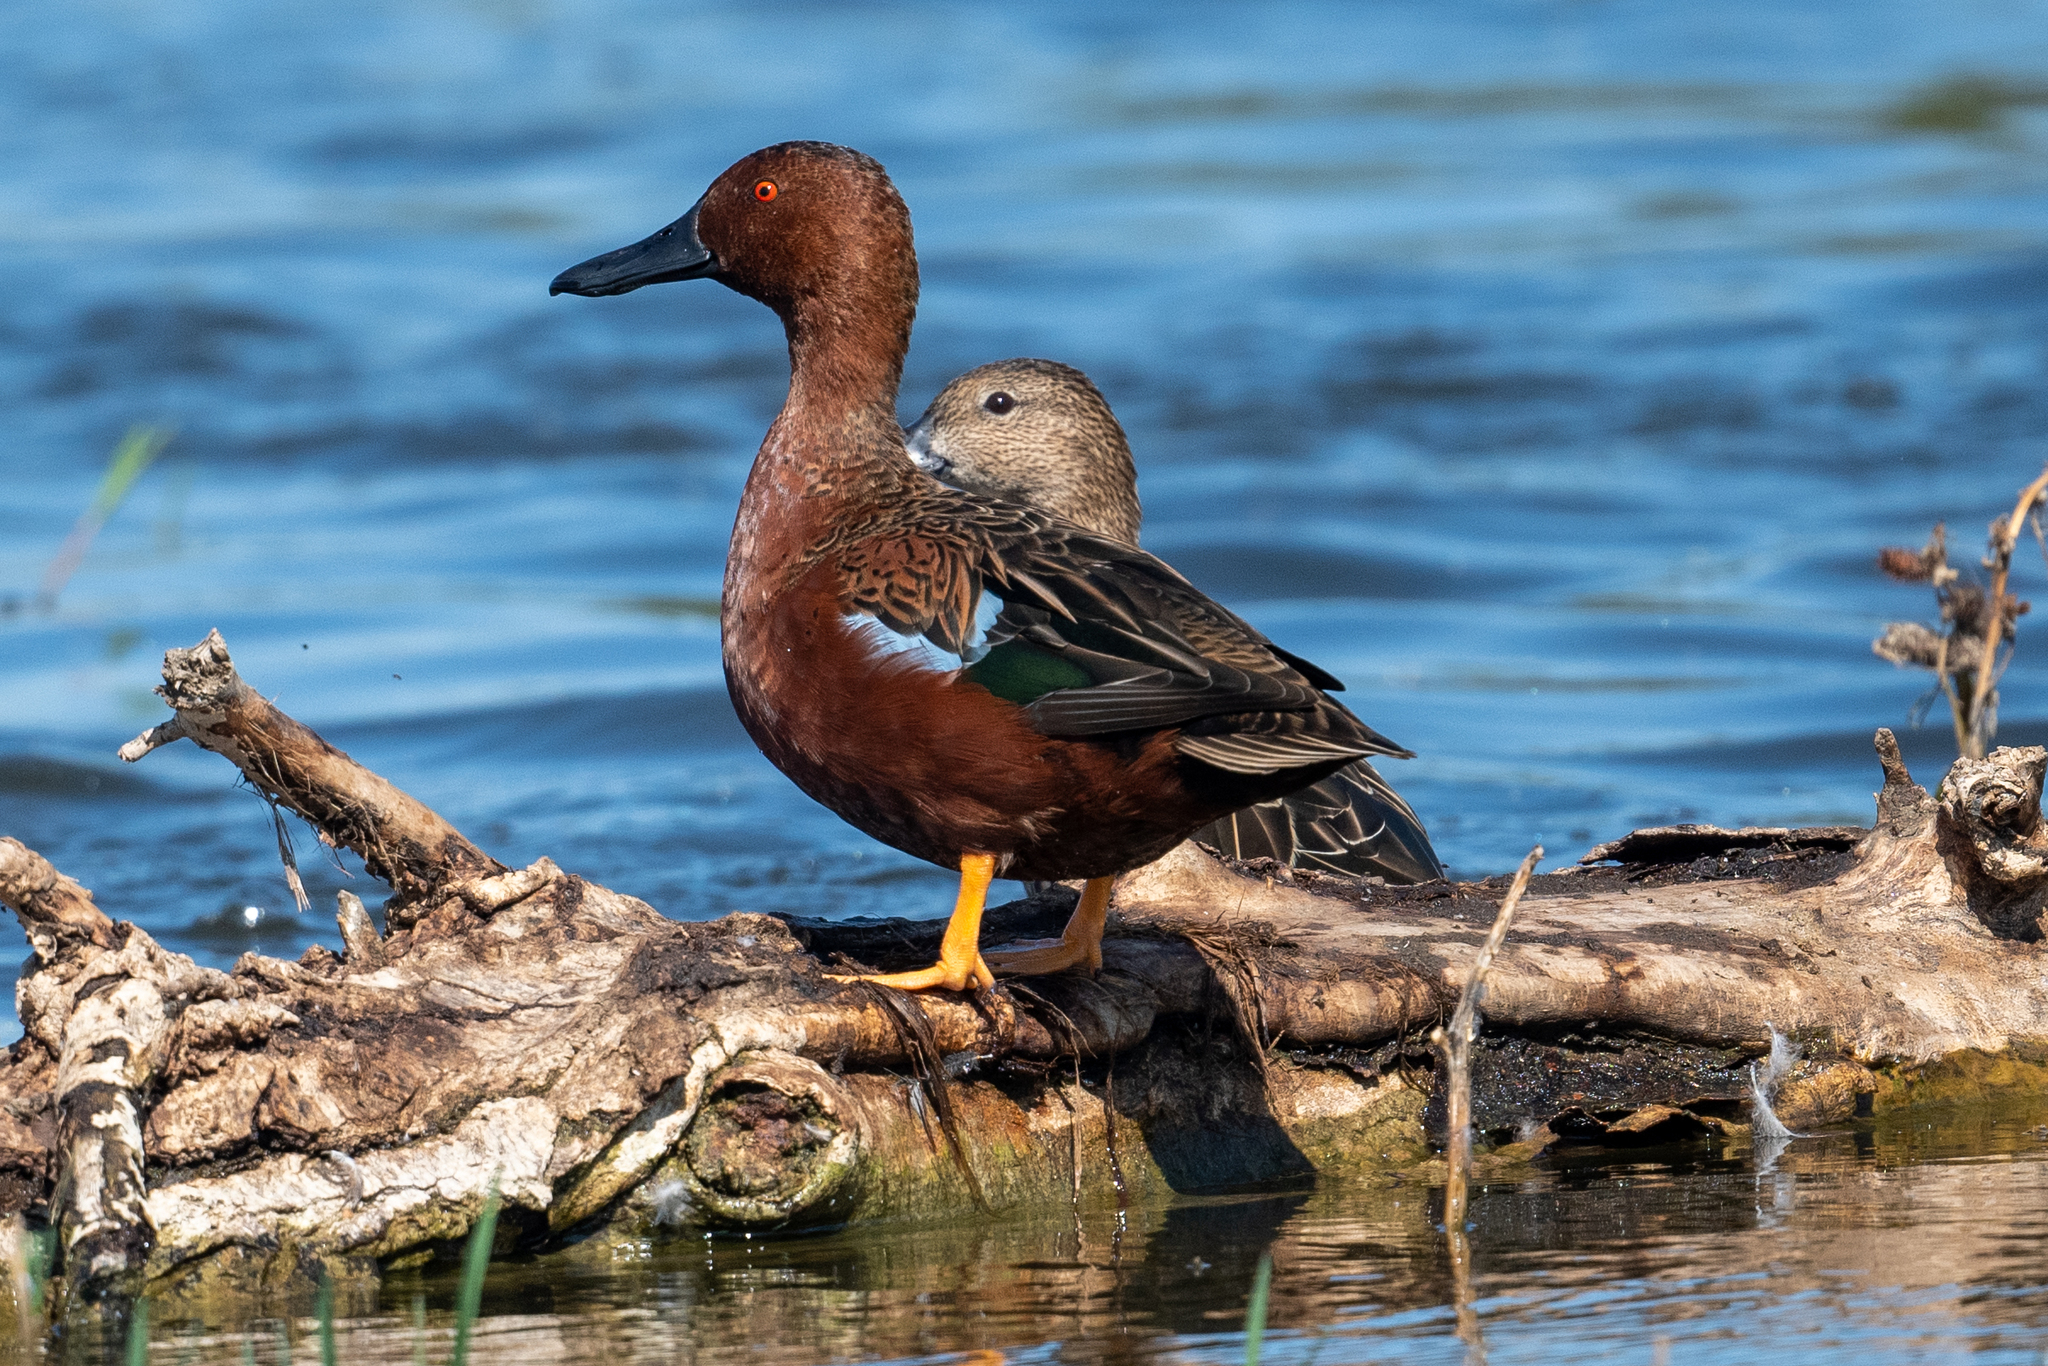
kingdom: Animalia
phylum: Chordata
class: Aves
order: Anseriformes
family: Anatidae
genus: Spatula
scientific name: Spatula cyanoptera
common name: Cinnamon teal
